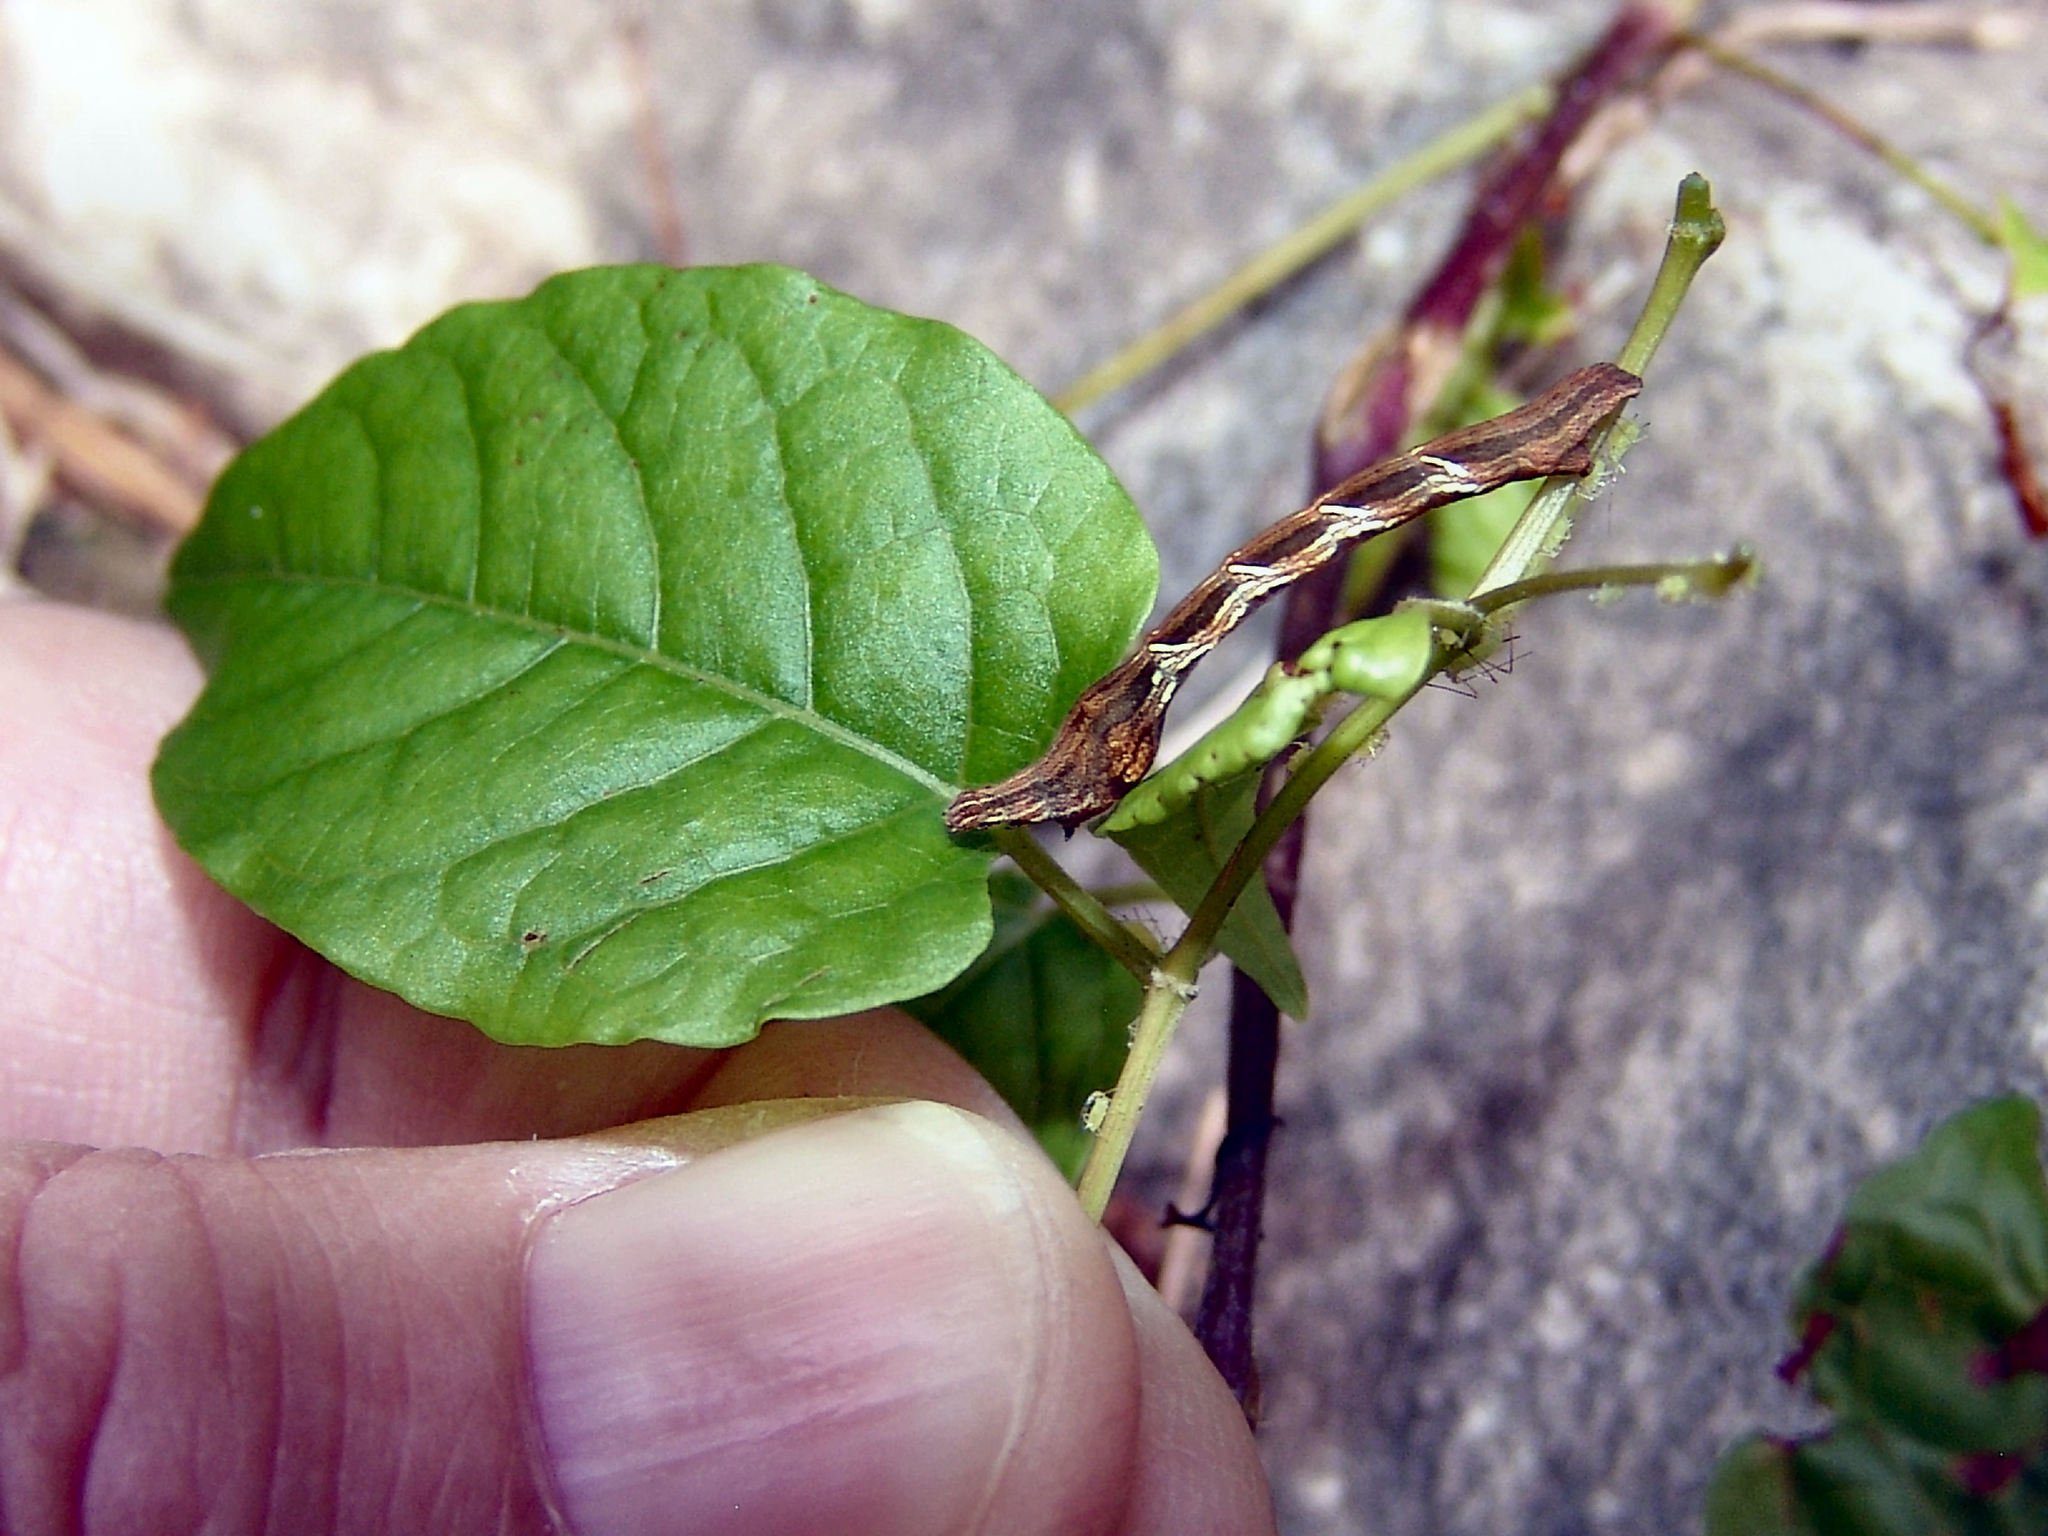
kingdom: Animalia
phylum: Arthropoda
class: Insecta
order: Lepidoptera
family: Geometridae
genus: Timandra
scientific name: Timandra amaturaria
